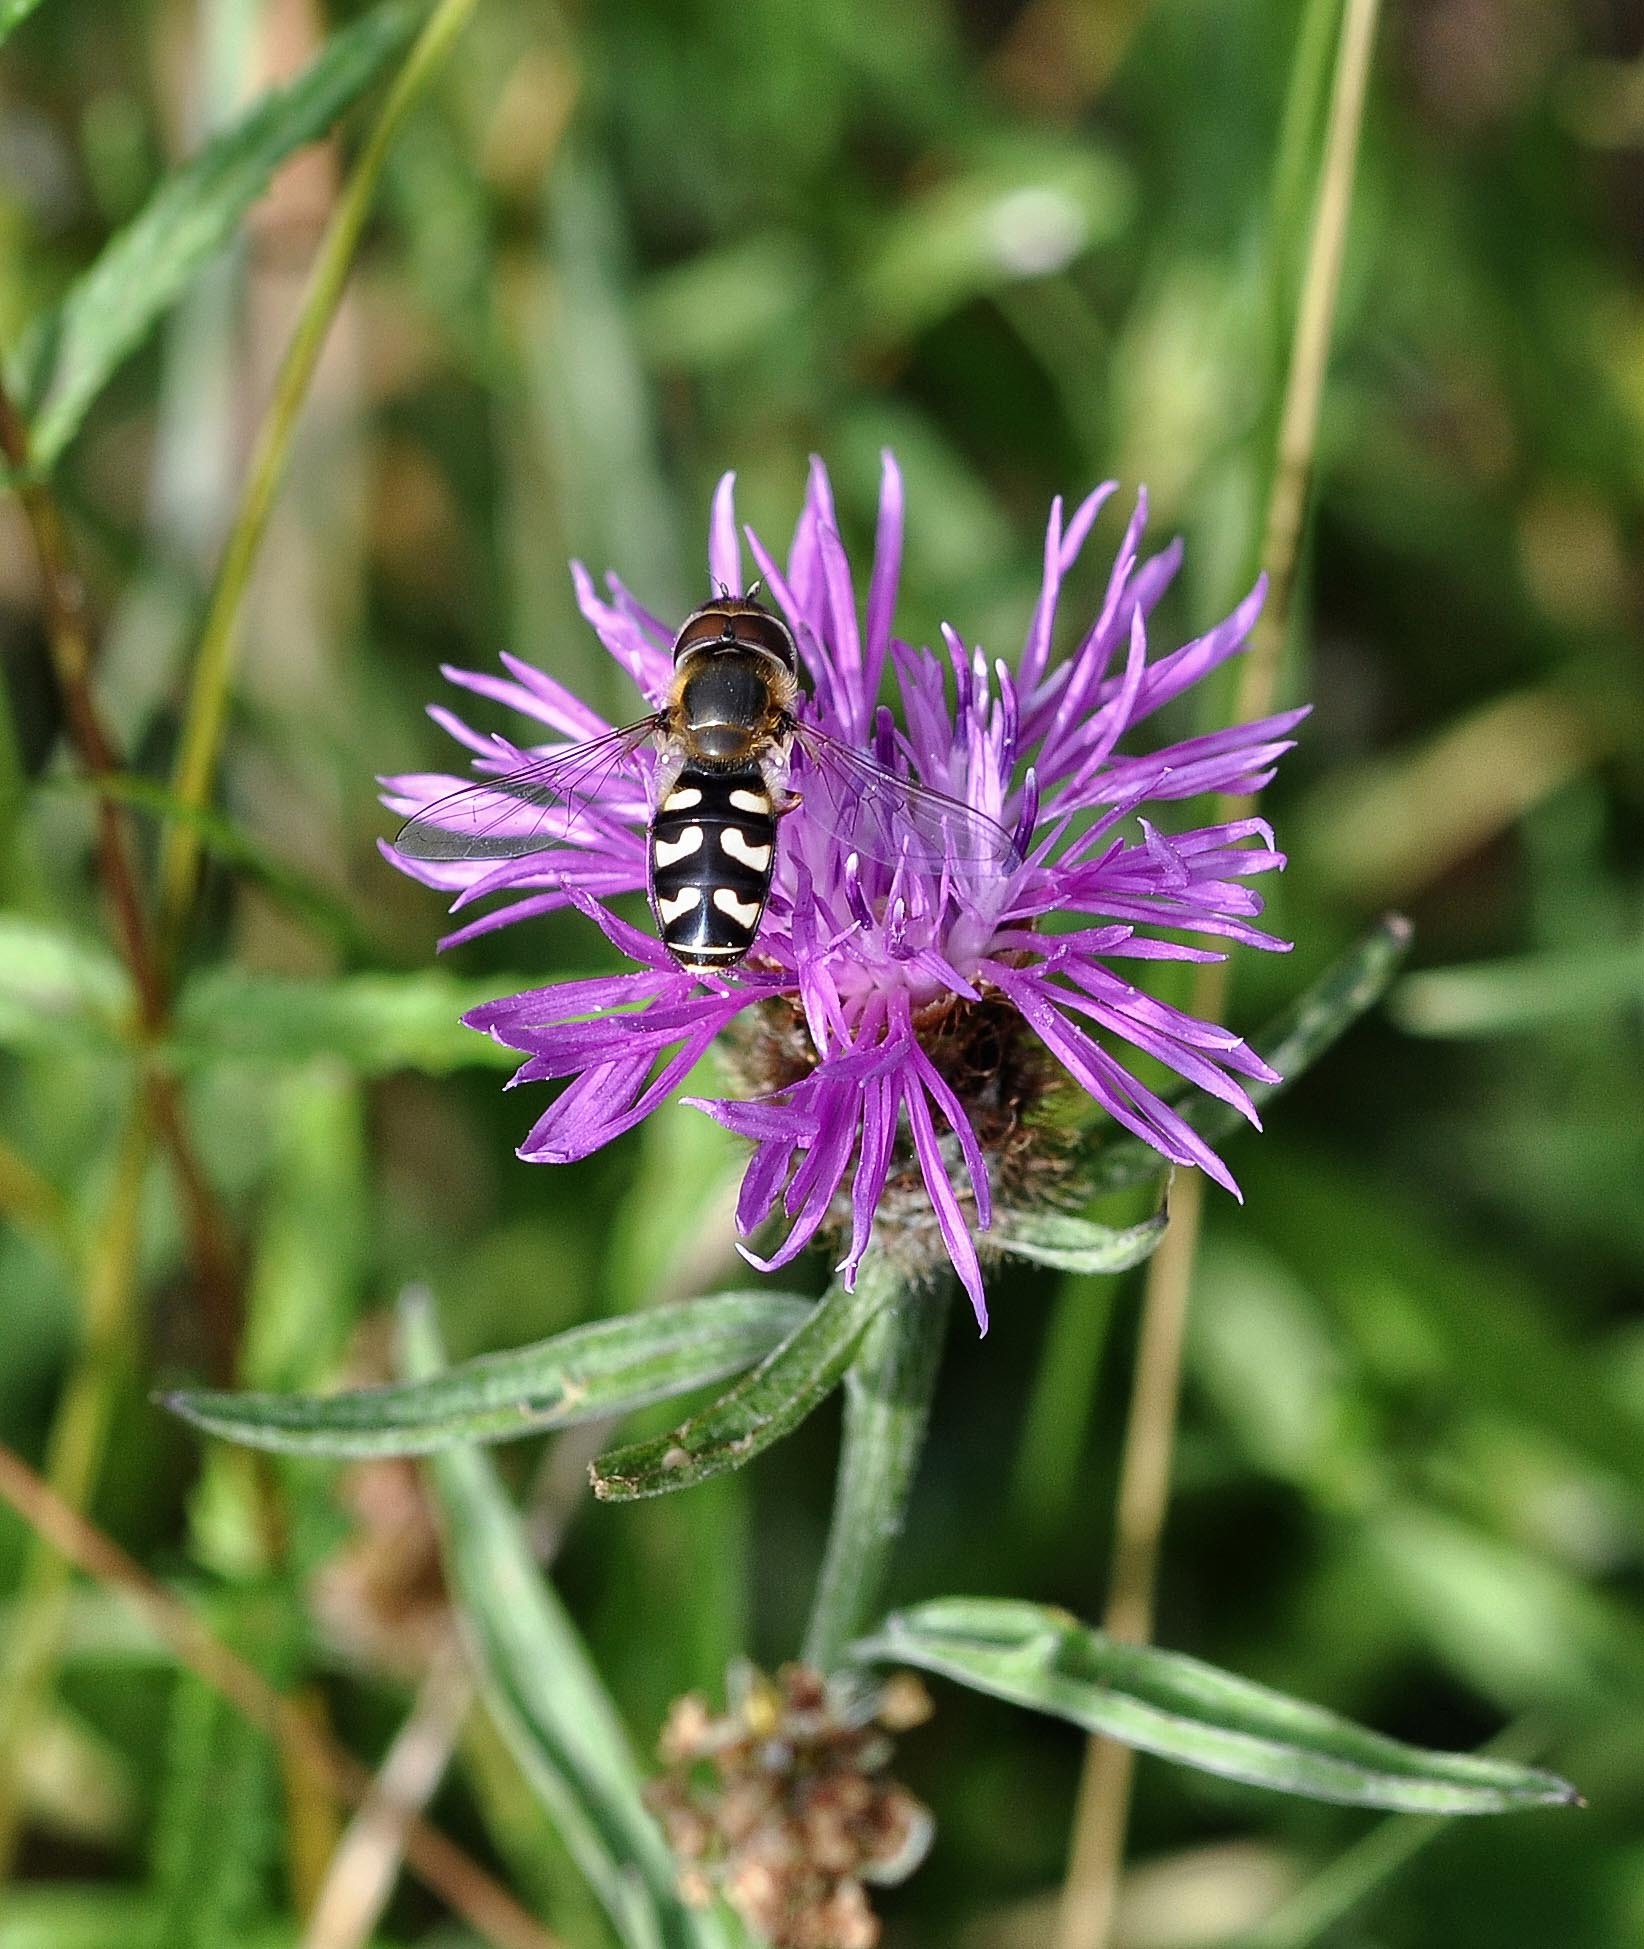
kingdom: Animalia
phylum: Arthropoda
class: Insecta
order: Diptera
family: Syrphidae
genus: Scaeva
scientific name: Scaeva pyrastri
